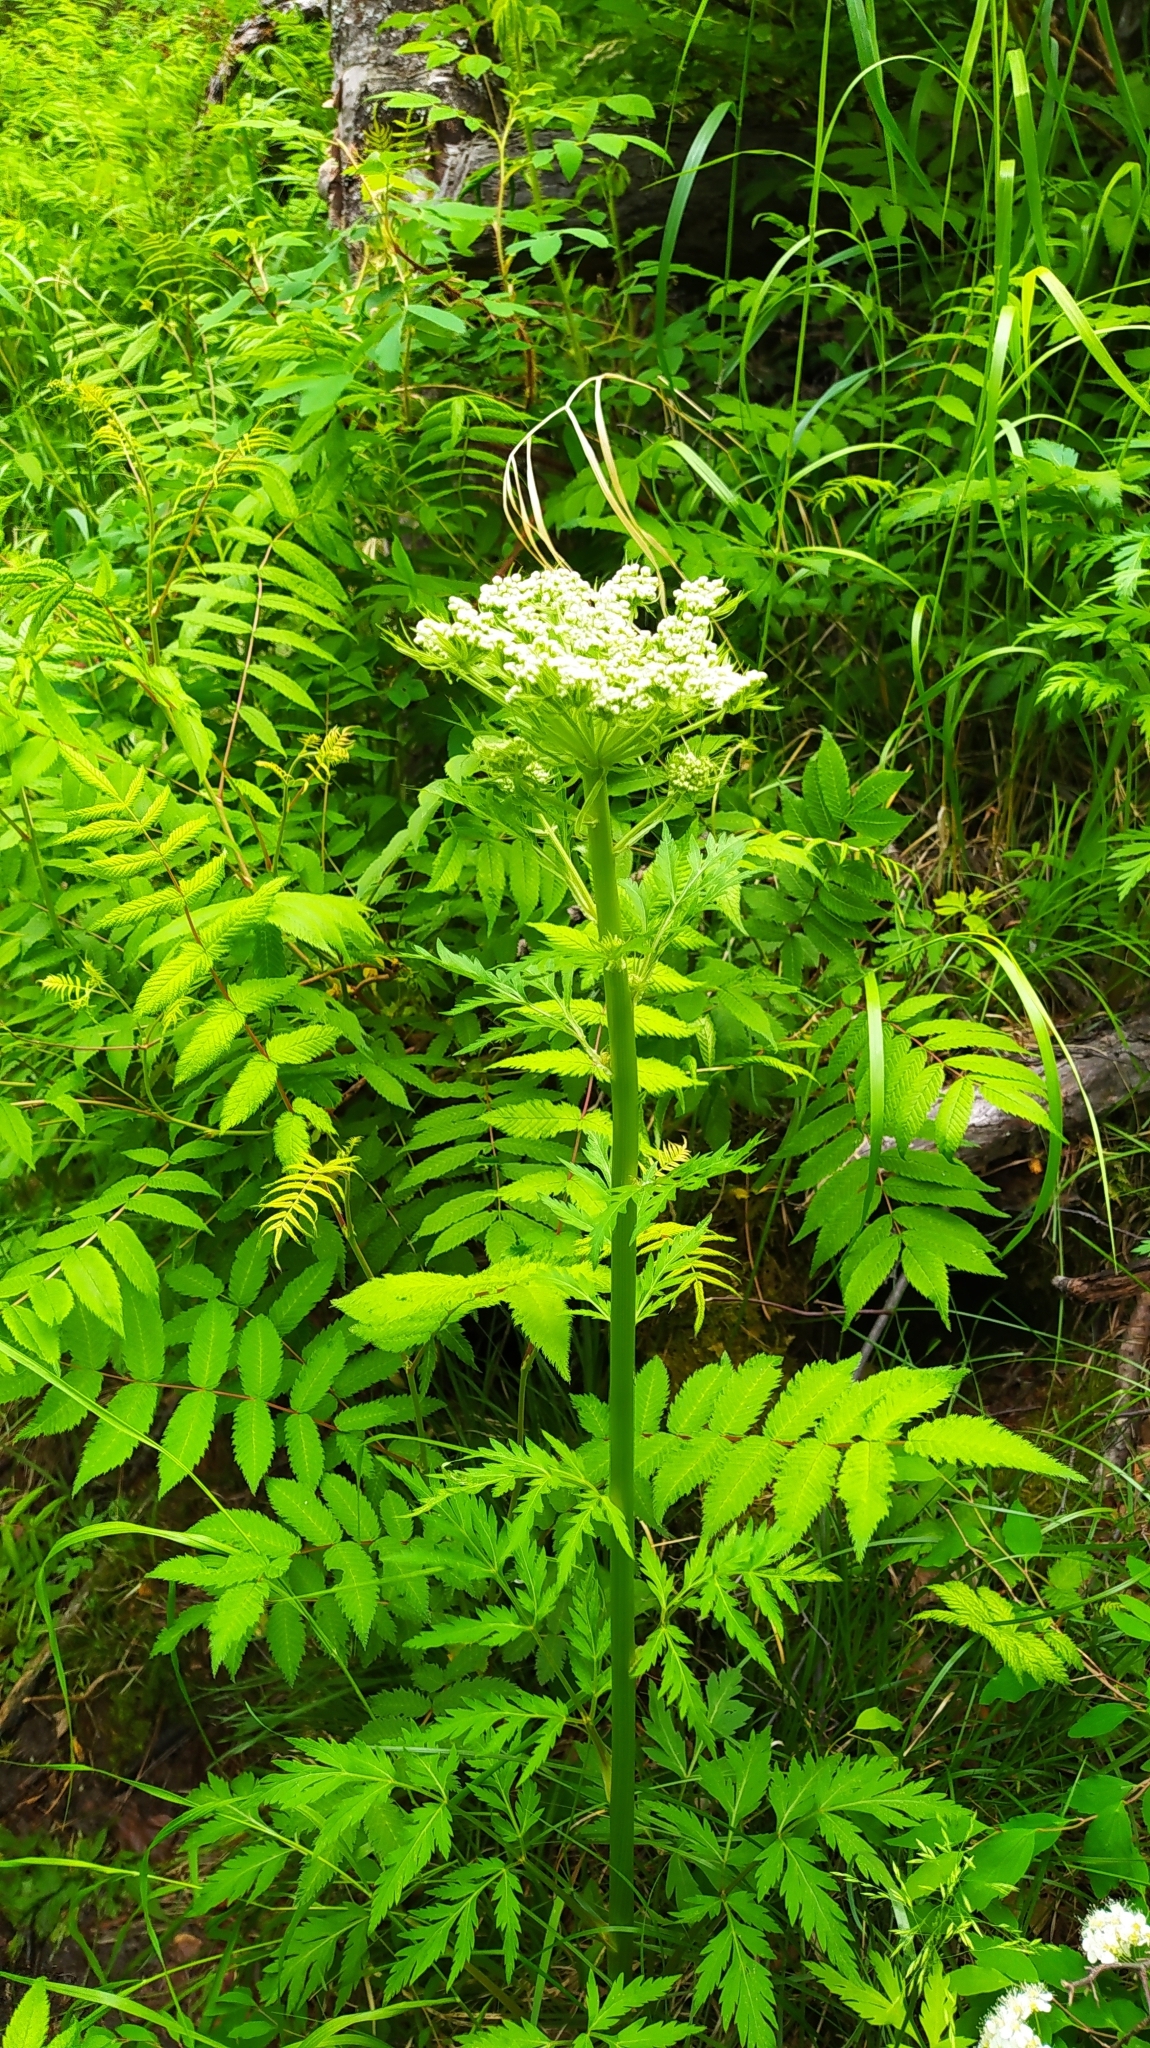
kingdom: Plantae
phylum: Tracheophyta
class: Magnoliopsida
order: Apiales
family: Apiaceae
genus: Pleurospermum
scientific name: Pleurospermum uralense
